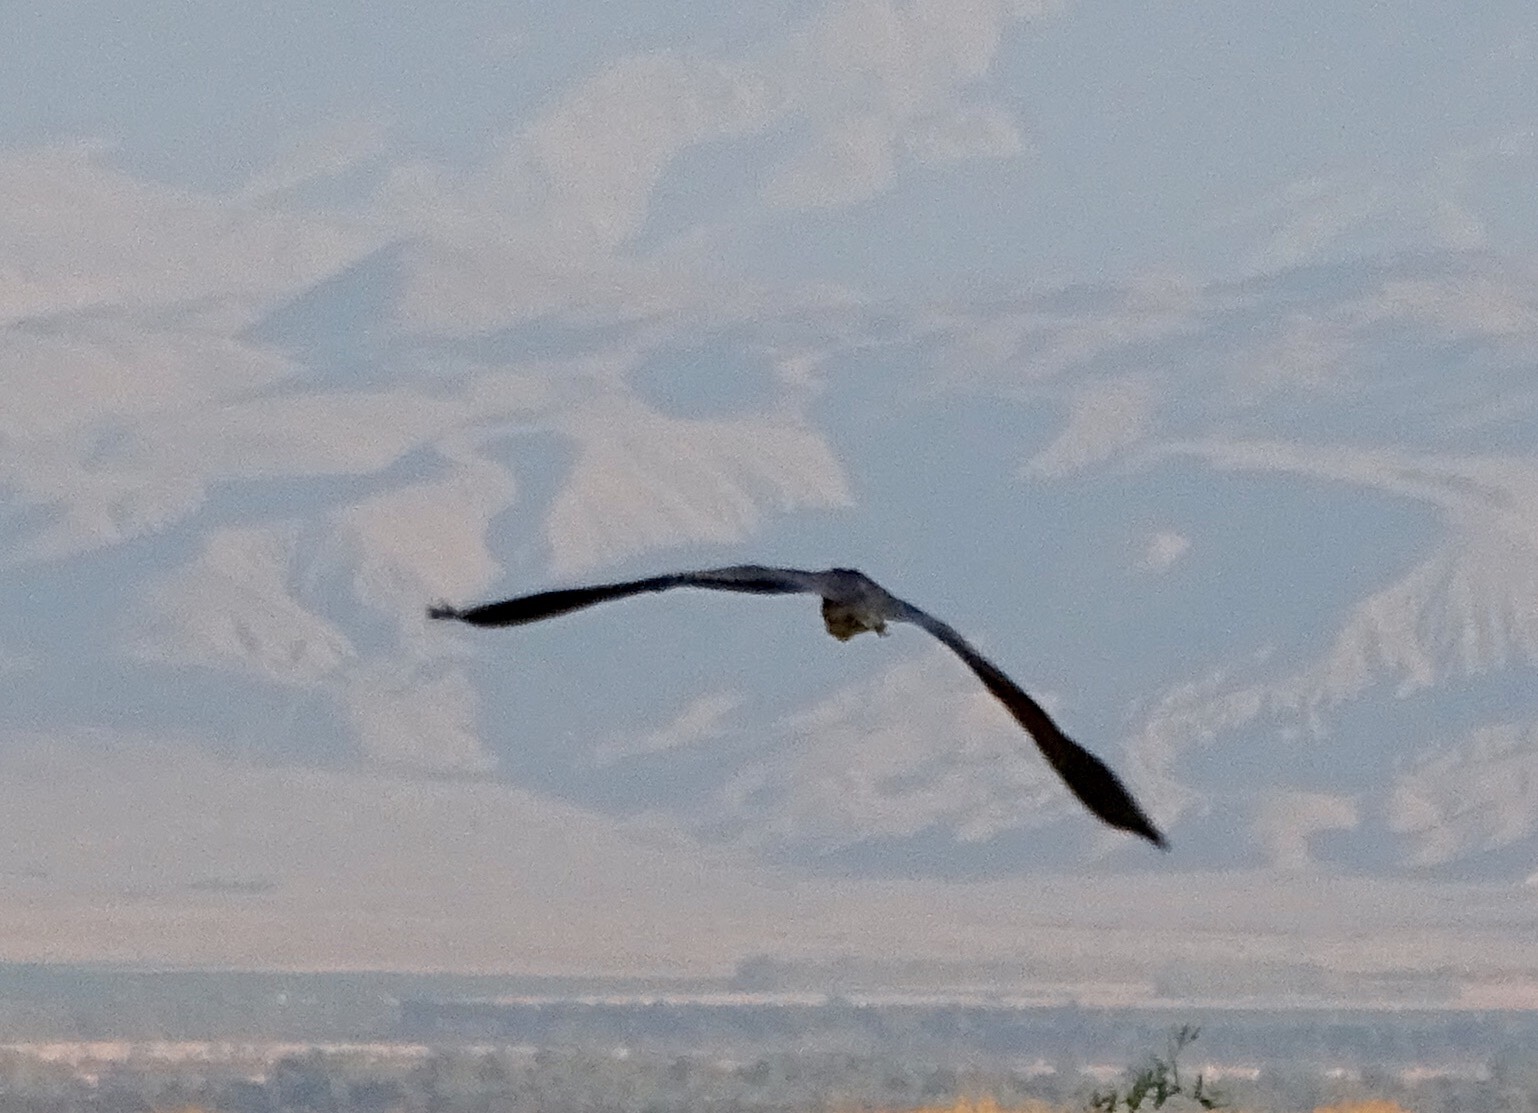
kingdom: Animalia
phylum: Chordata
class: Aves
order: Pelecaniformes
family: Ardeidae
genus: Ardea
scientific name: Ardea herodias
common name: Great blue heron
